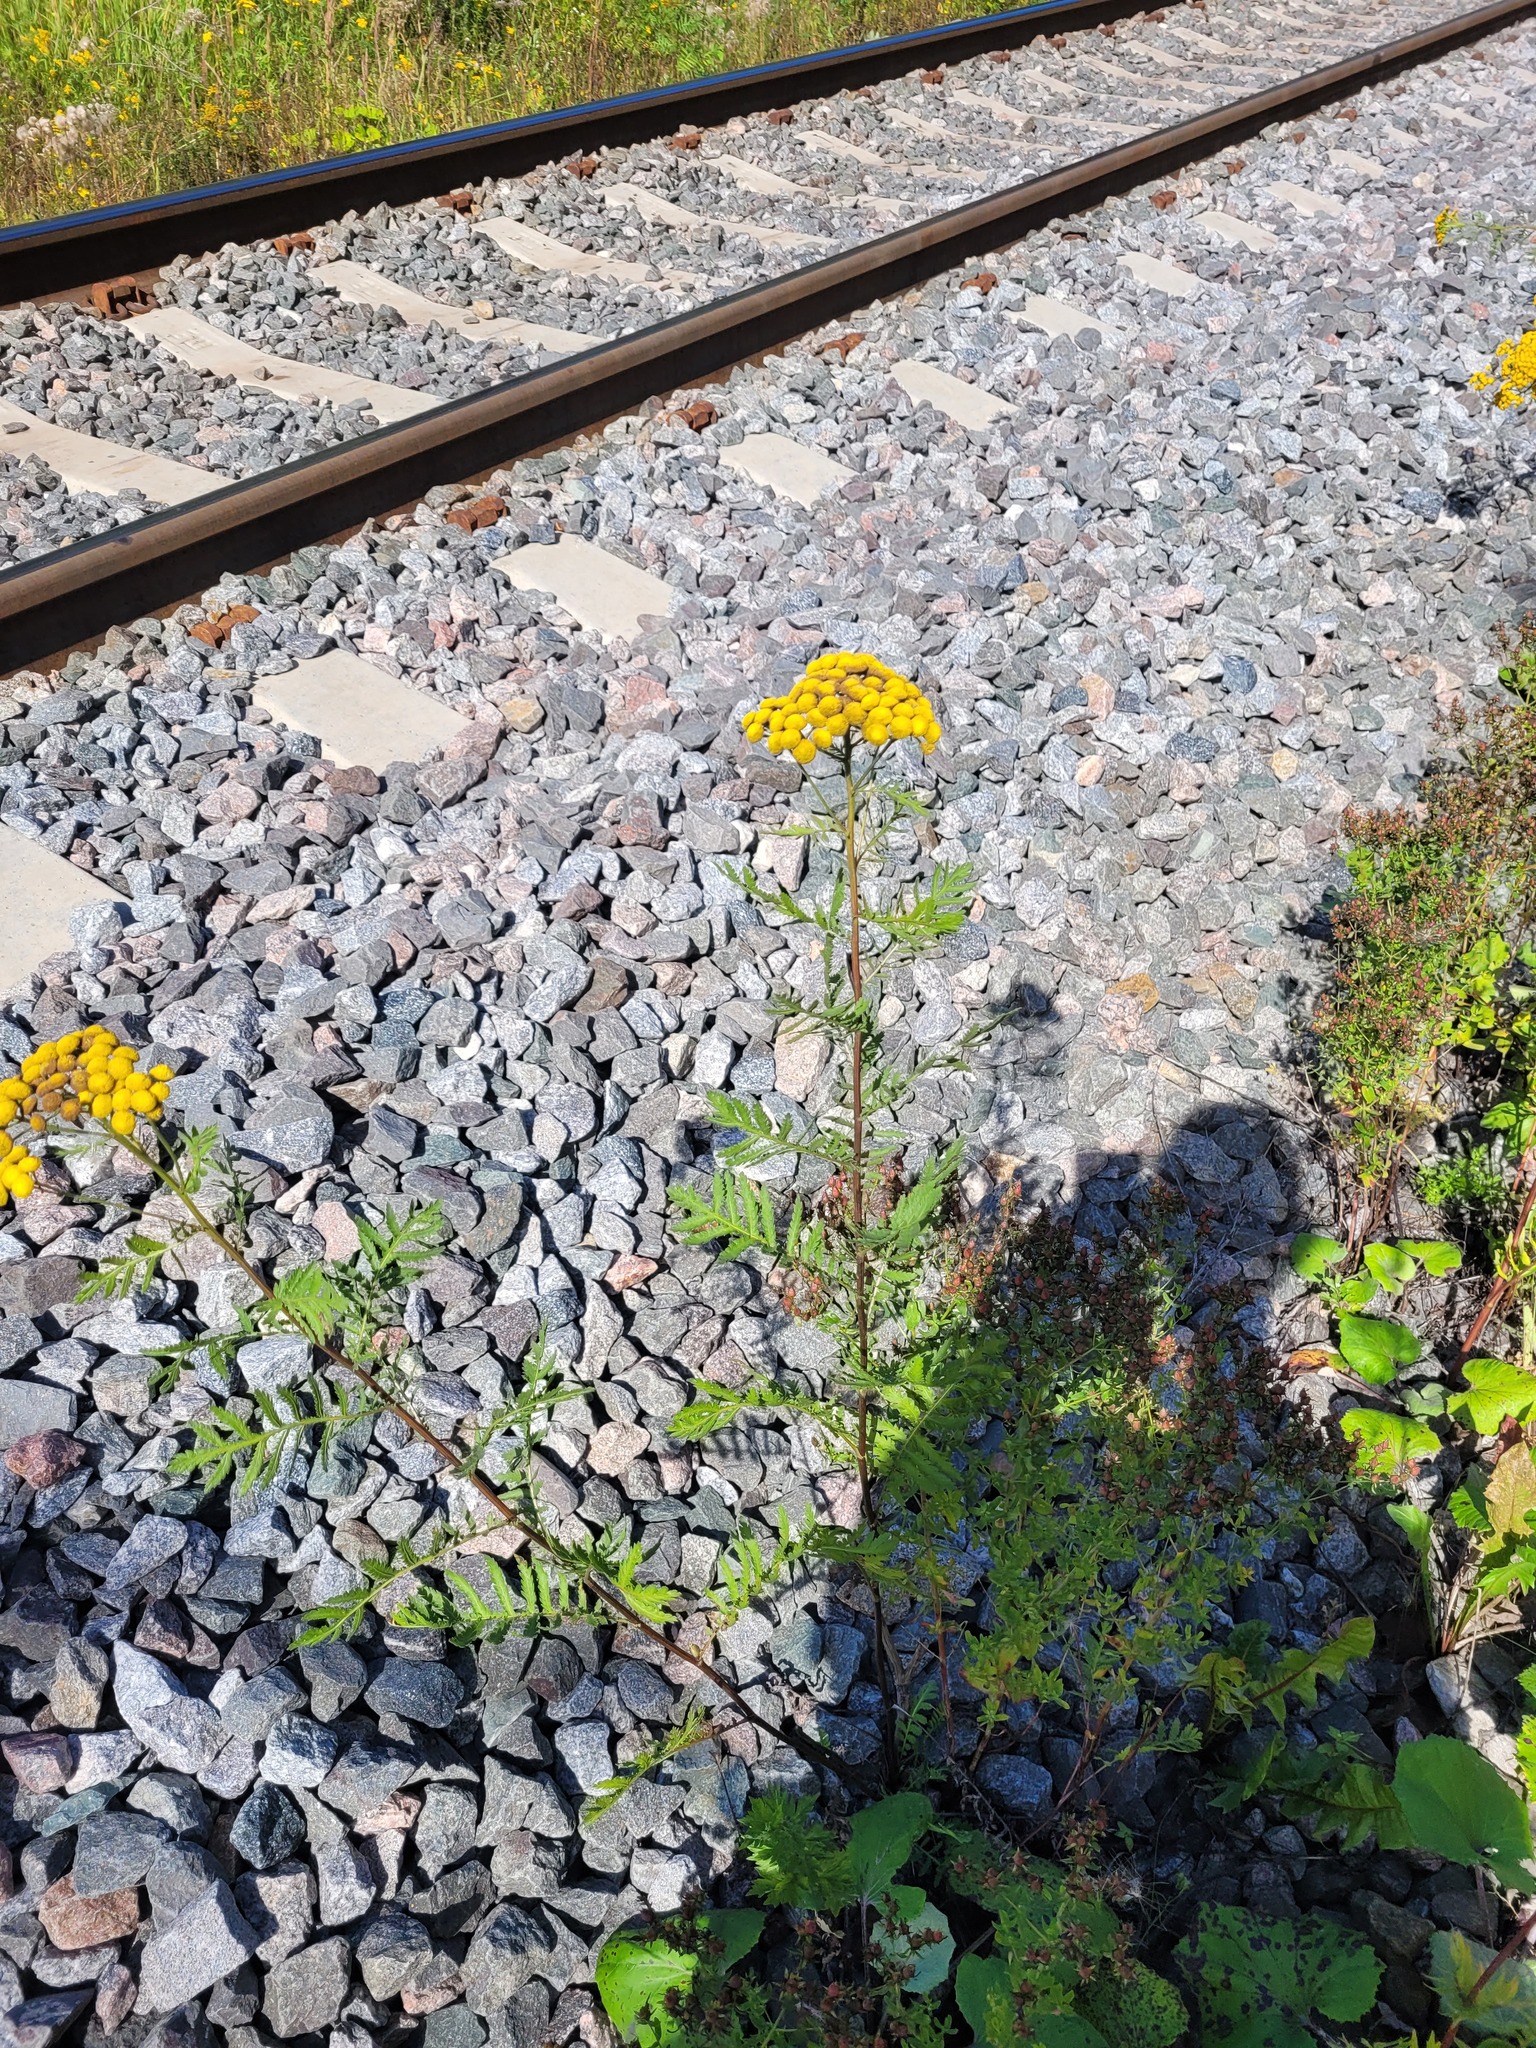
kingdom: Plantae
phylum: Tracheophyta
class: Magnoliopsida
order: Asterales
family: Asteraceae
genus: Tanacetum
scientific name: Tanacetum vulgare
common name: Common tansy
